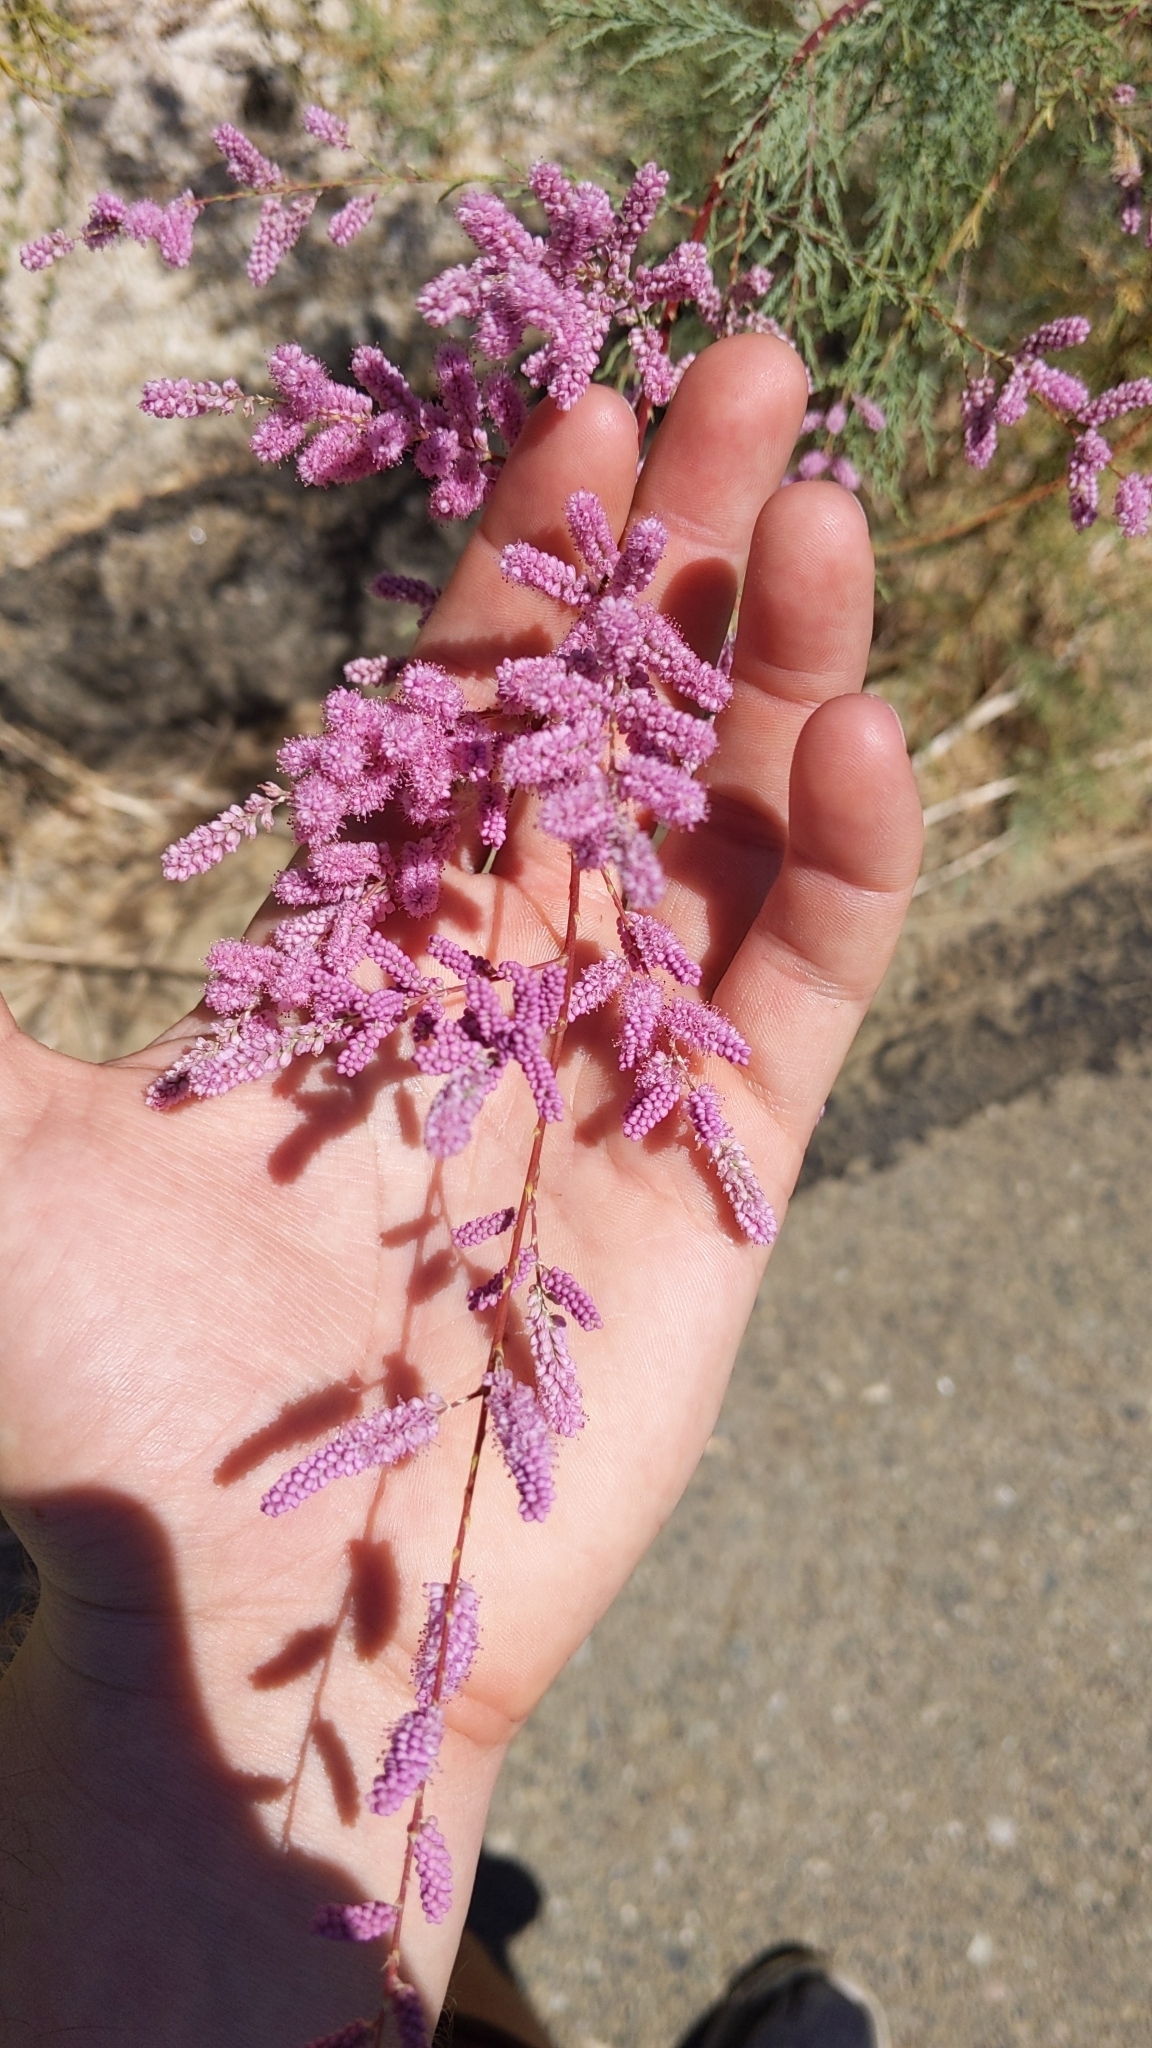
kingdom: Plantae
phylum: Tracheophyta
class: Magnoliopsida
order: Caryophyllales
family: Tamaricaceae
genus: Tamarix
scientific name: Tamarix
